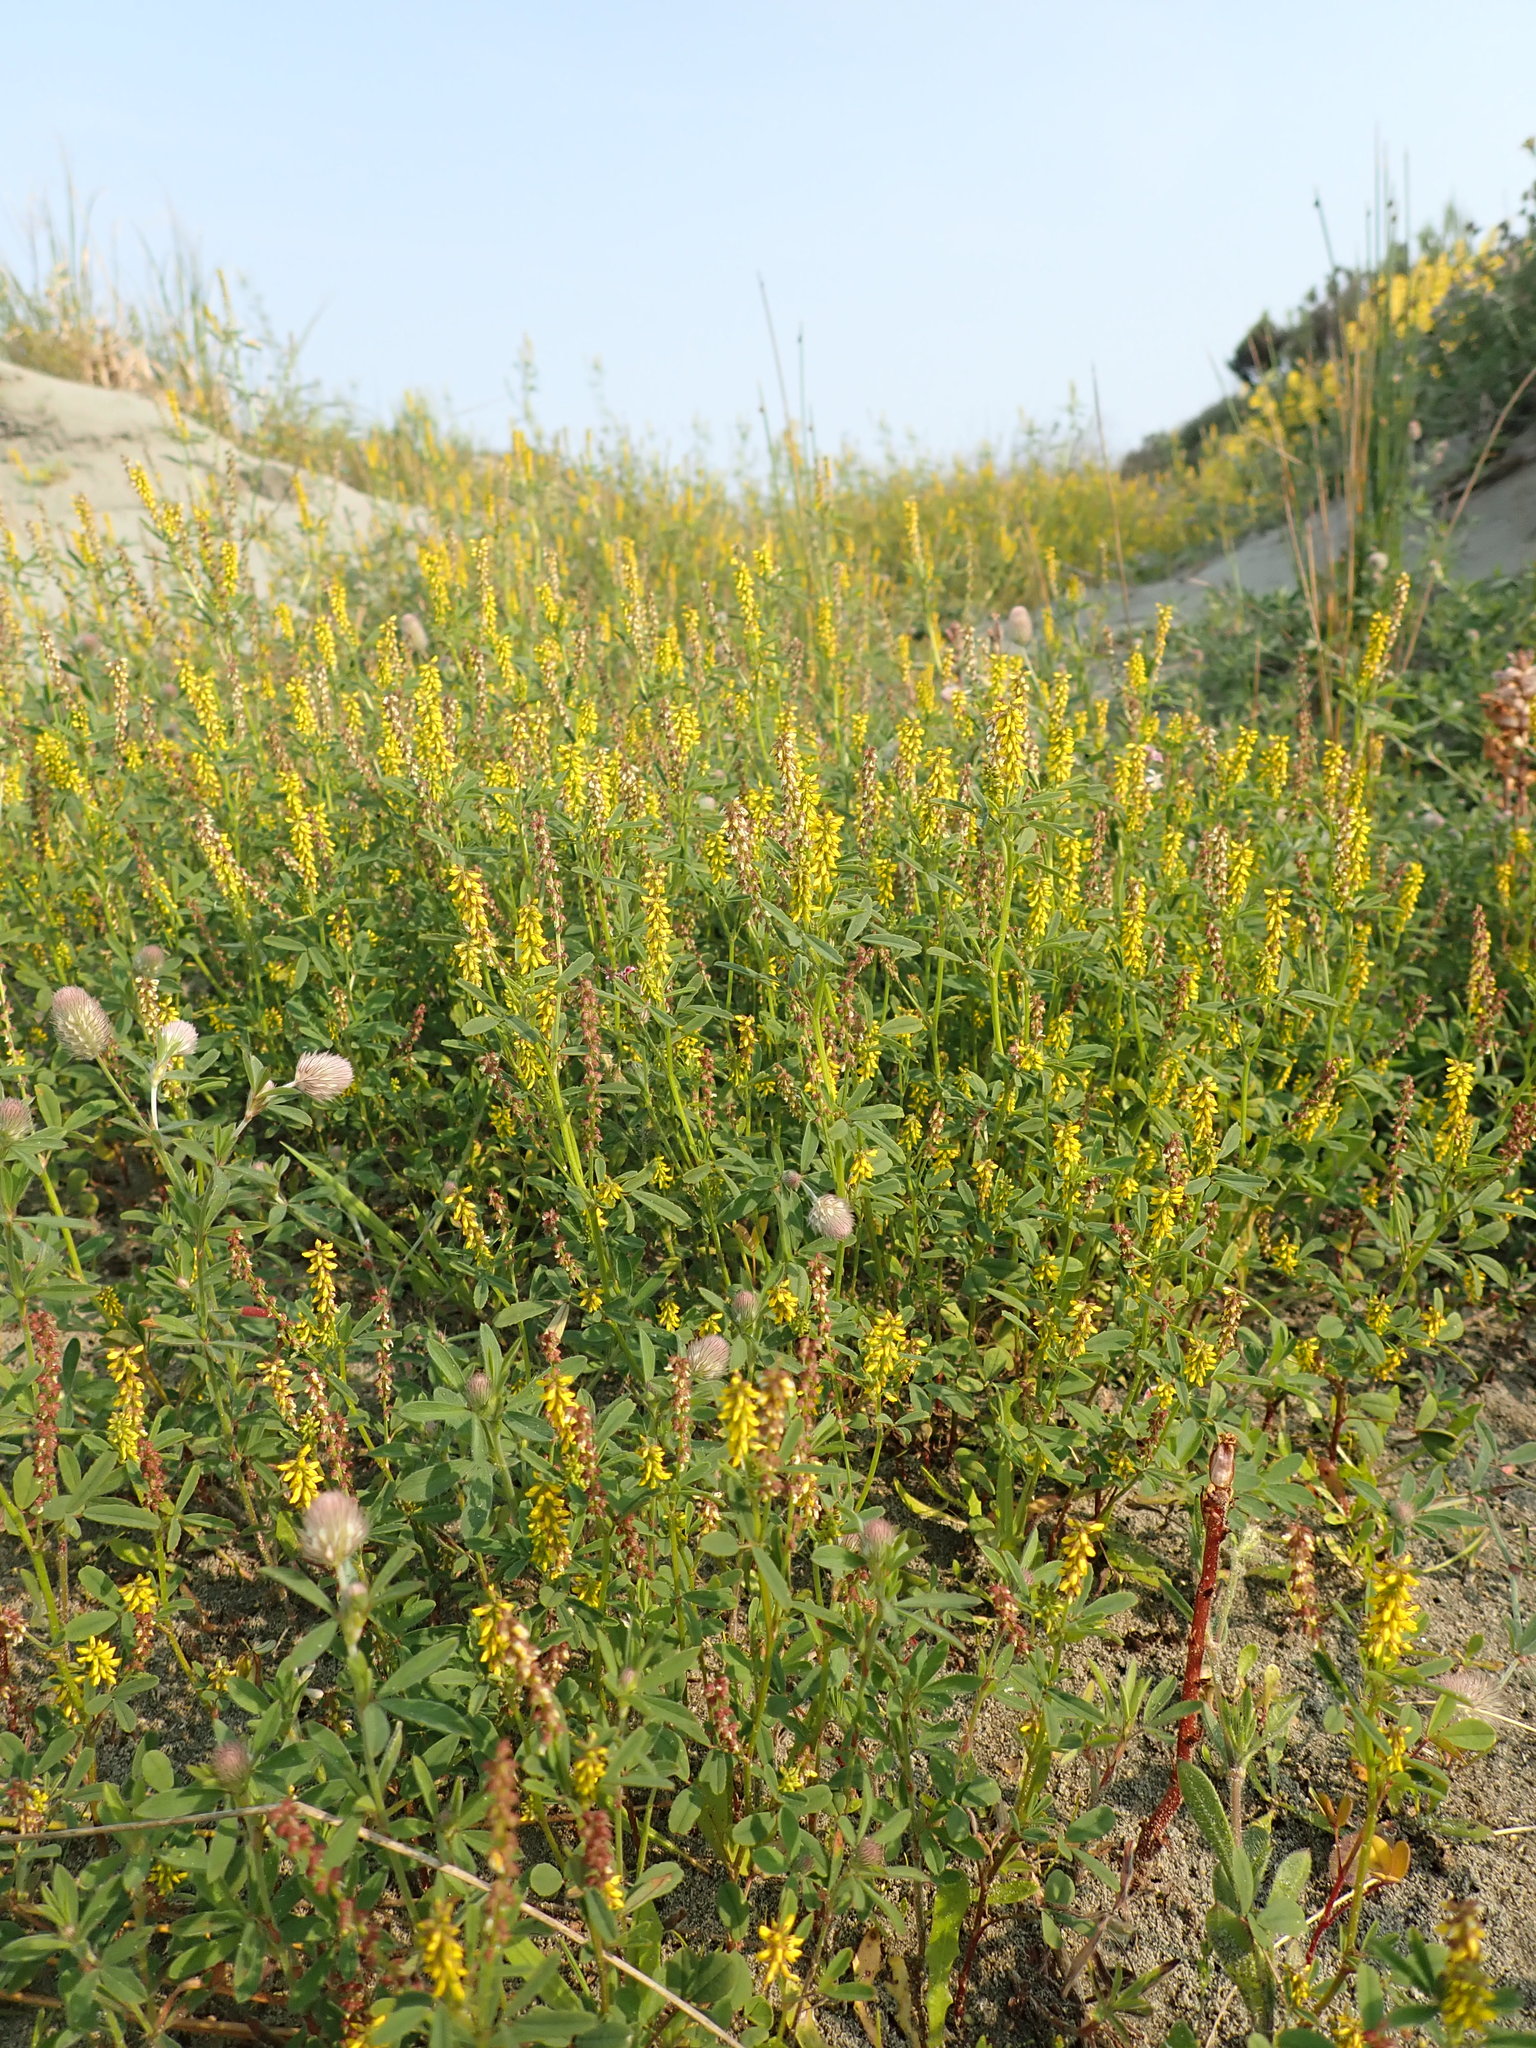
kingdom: Plantae
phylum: Tracheophyta
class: Magnoliopsida
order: Fabales
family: Fabaceae
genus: Melilotus
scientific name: Melilotus indicus
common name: Small melilot
